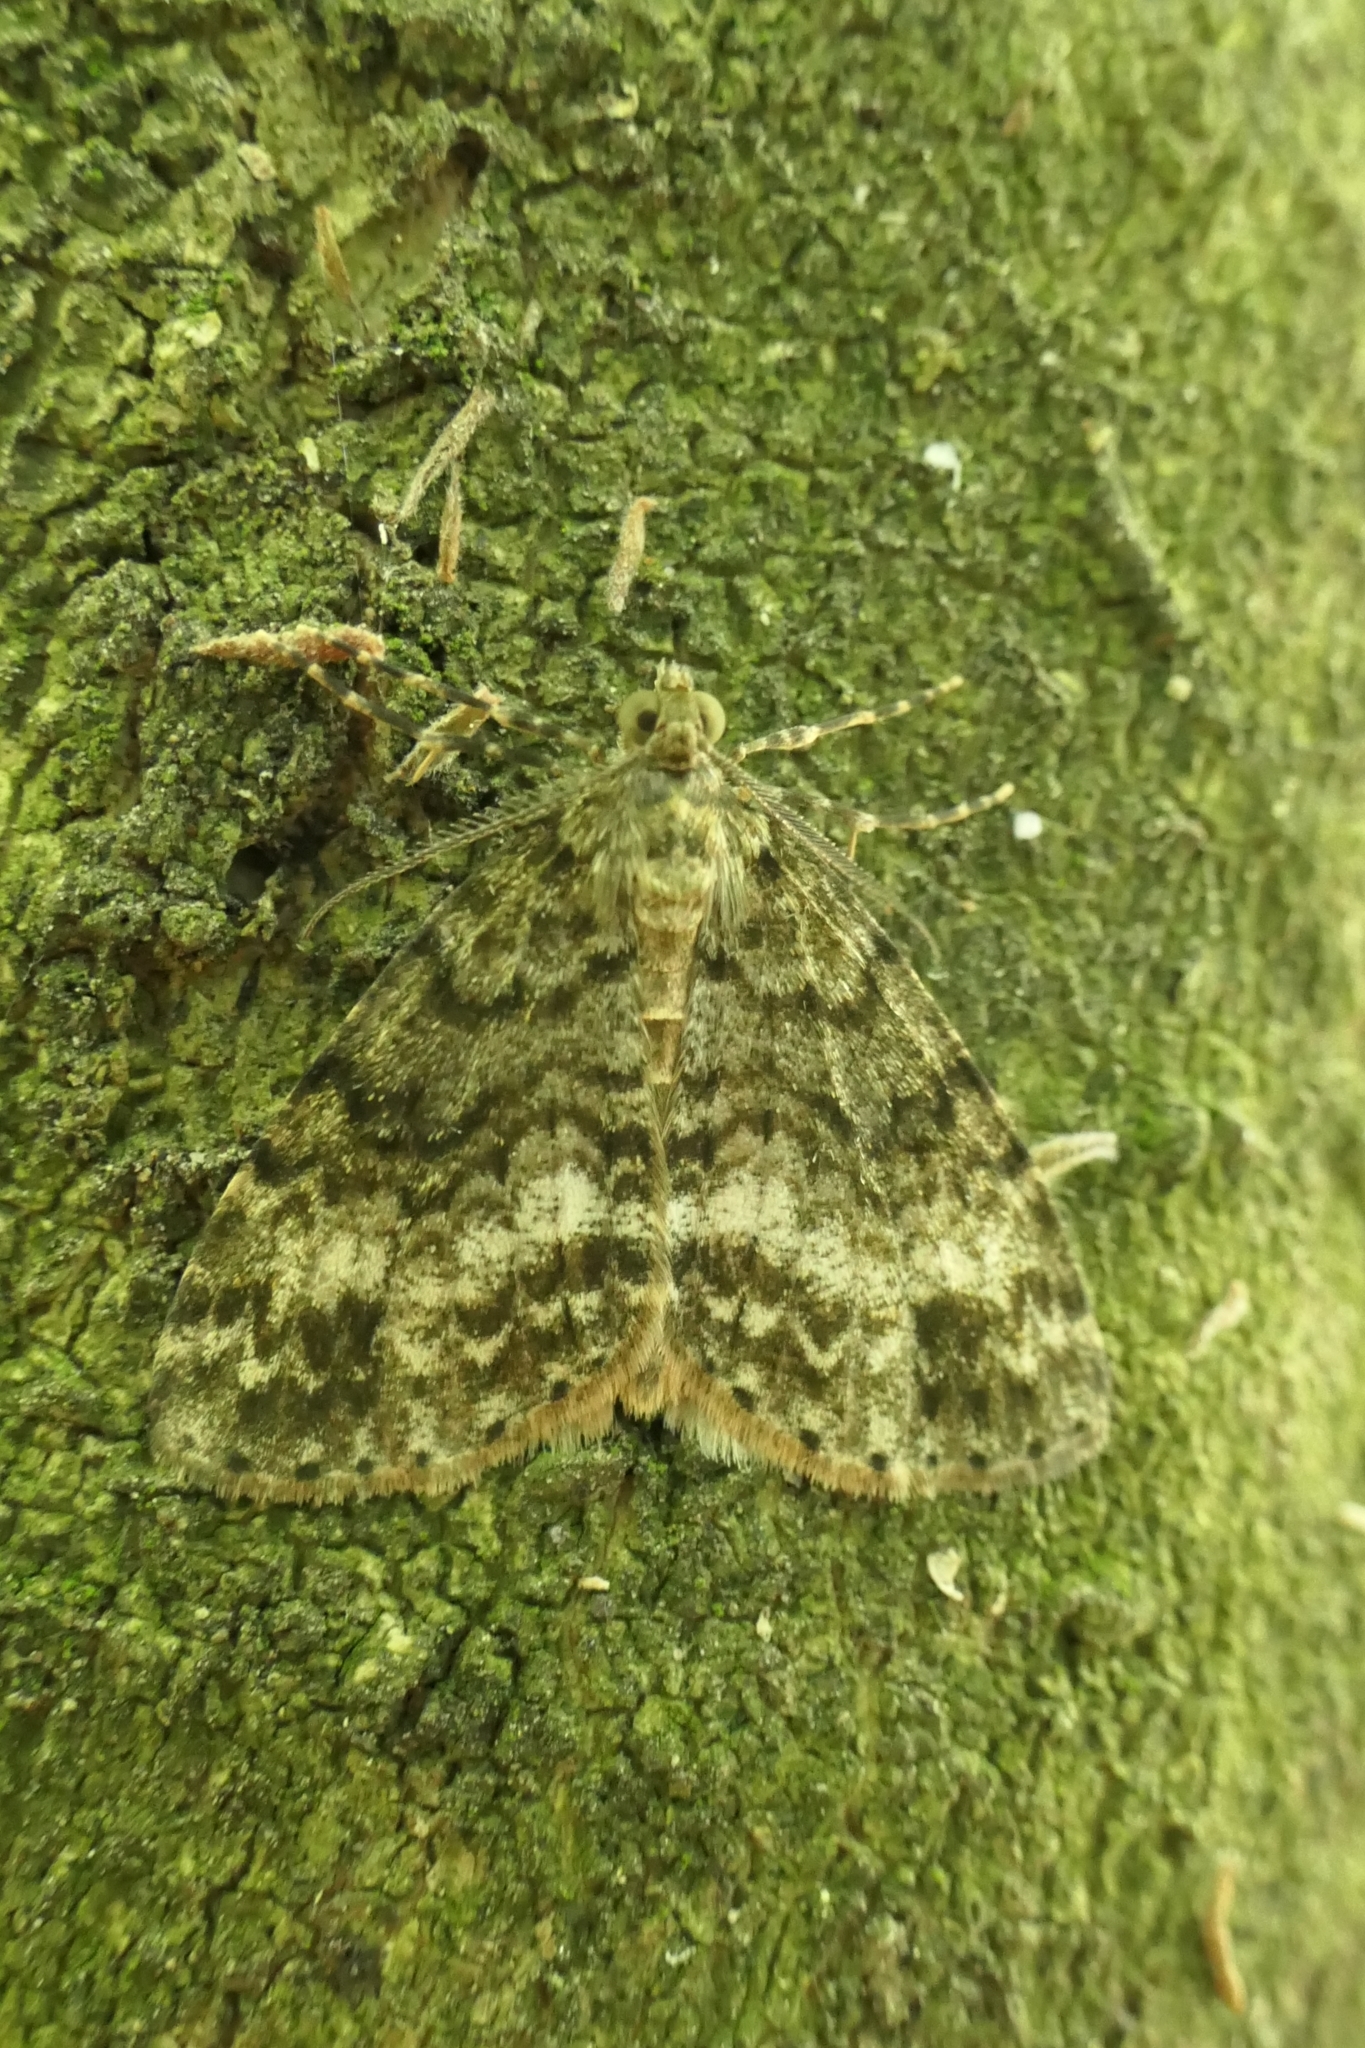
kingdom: Animalia
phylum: Arthropoda
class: Insecta
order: Lepidoptera
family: Geometridae
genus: Pseudocoremia
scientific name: Pseudocoremia indistincta
